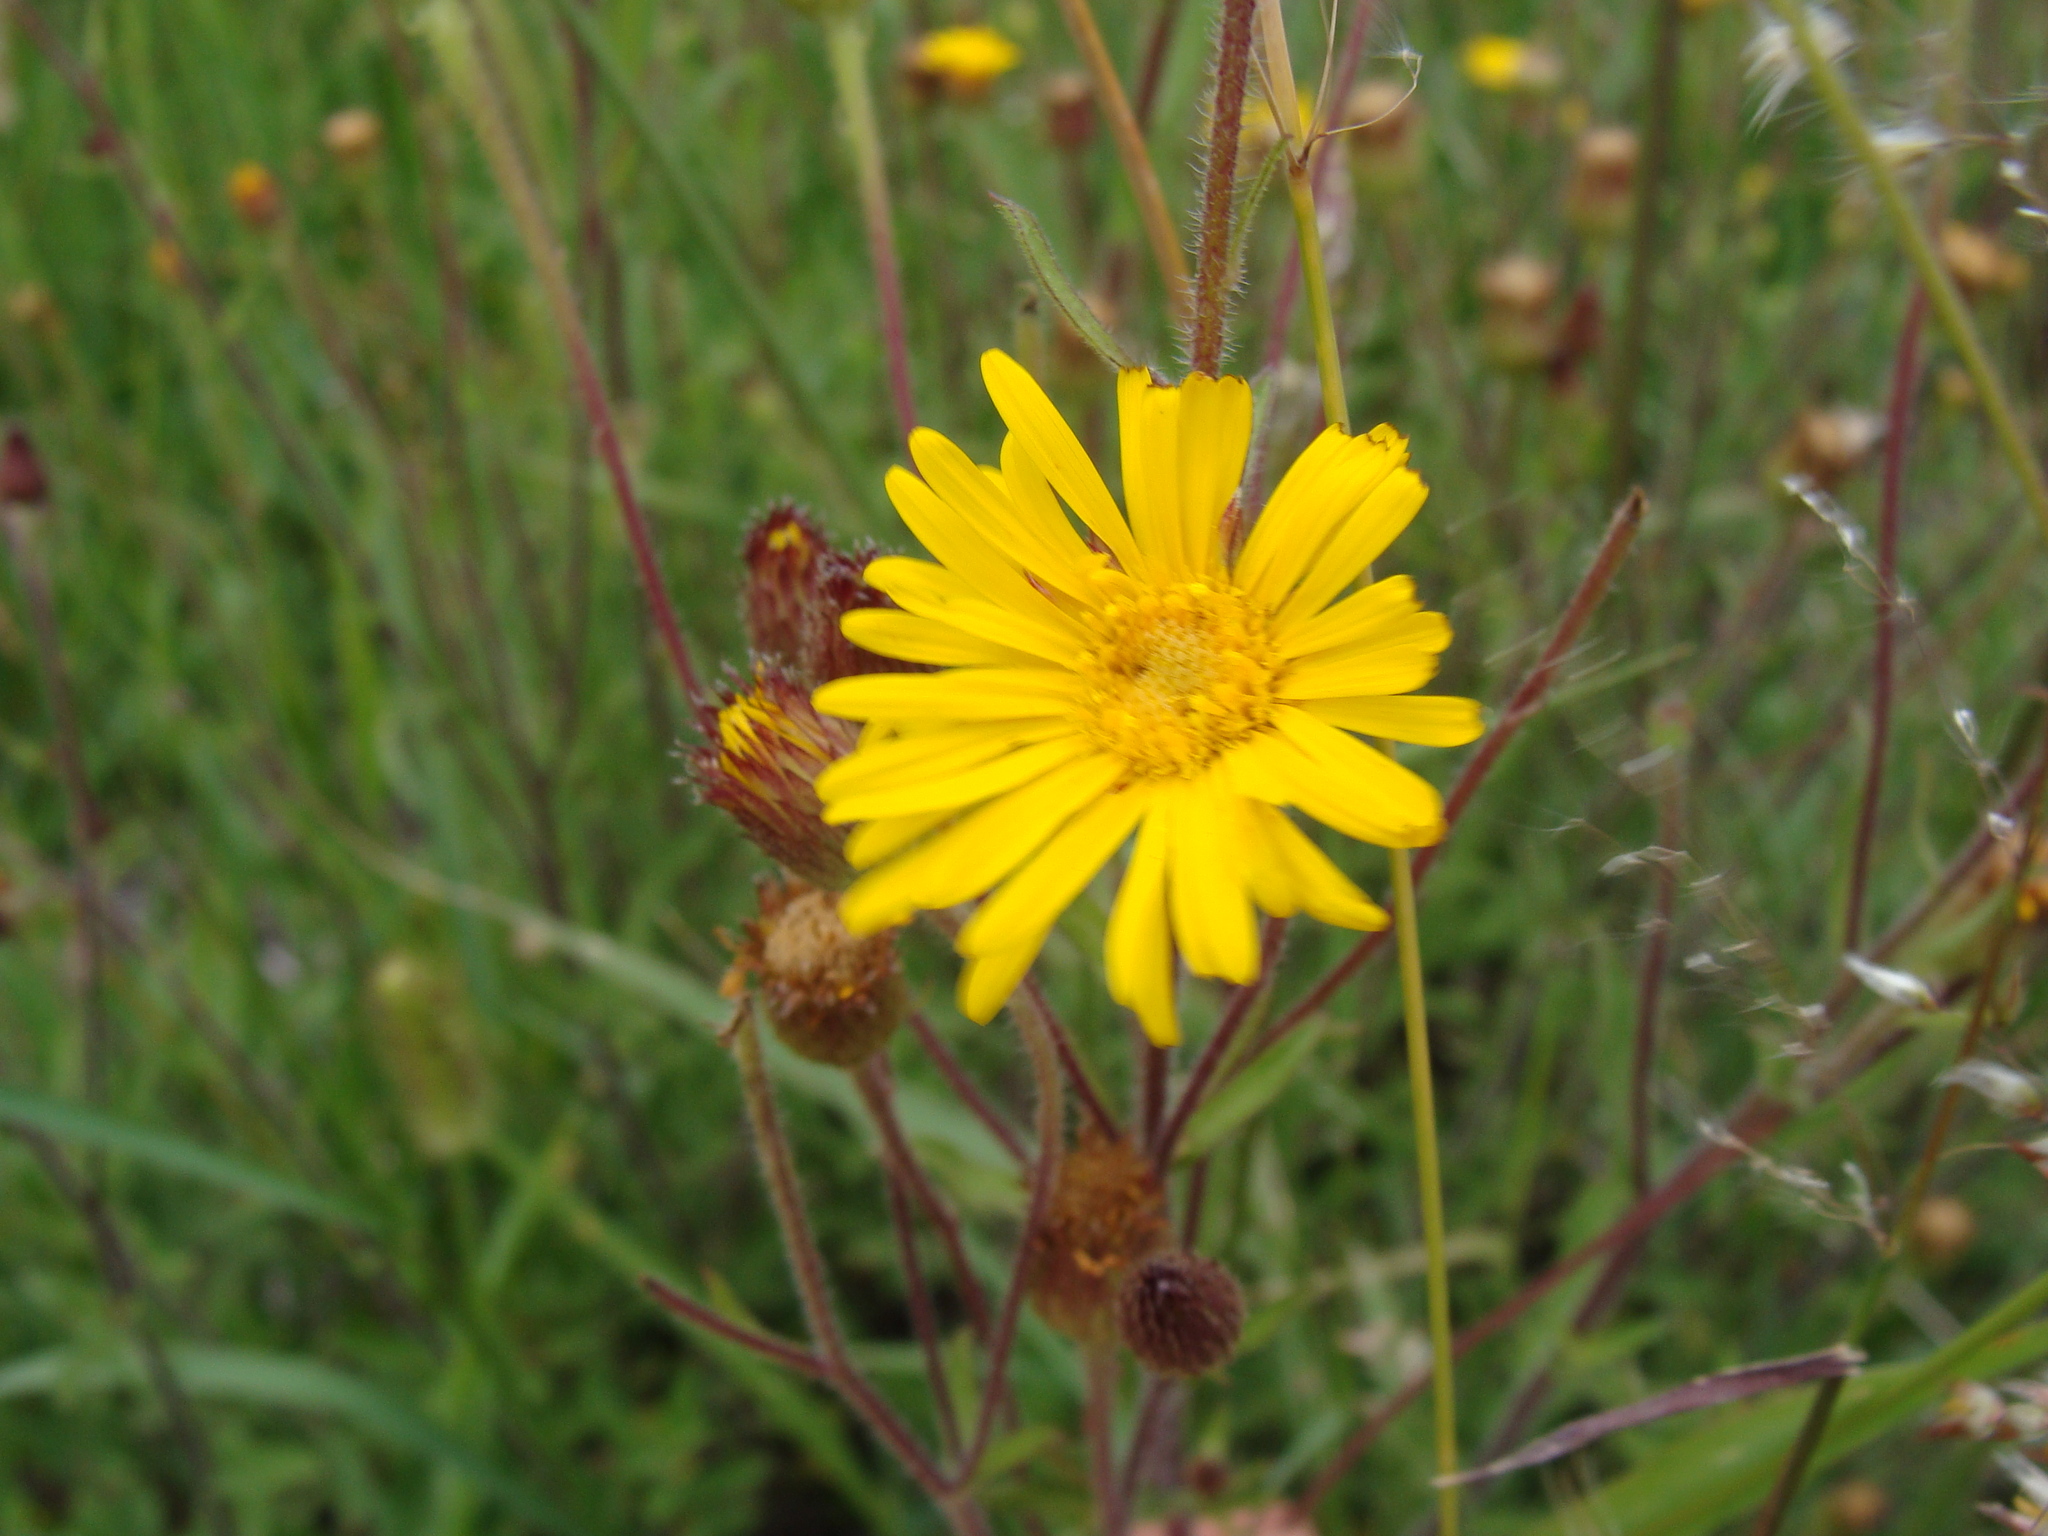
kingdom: Plantae
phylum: Tracheophyta
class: Magnoliopsida
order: Asterales
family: Asteraceae
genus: Heterotheca
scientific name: Heterotheca inuloides
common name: False arnica
